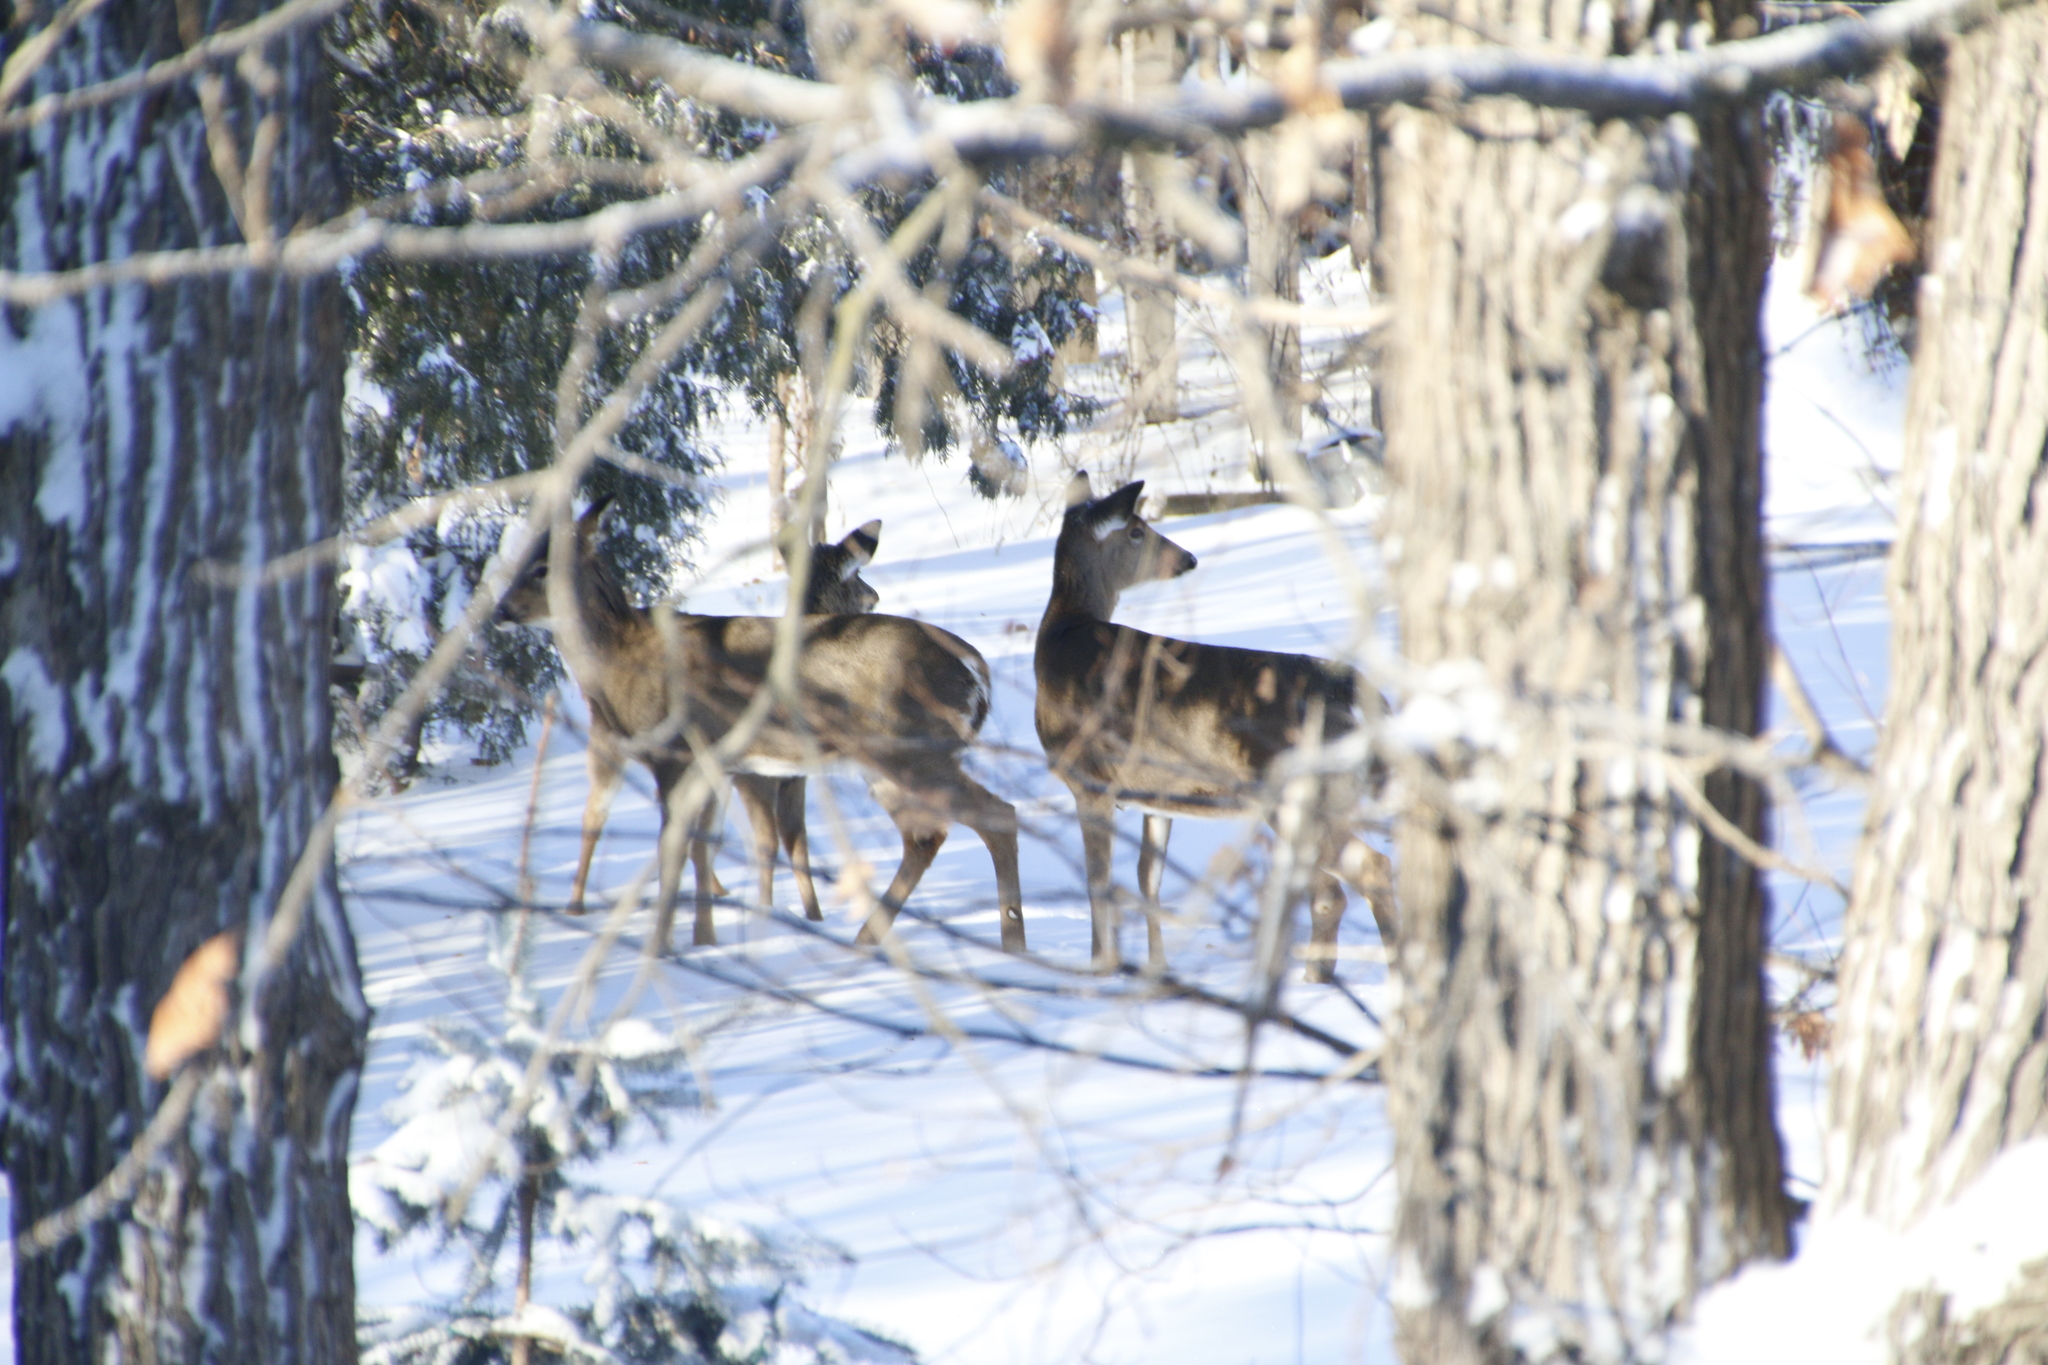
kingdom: Animalia
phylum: Chordata
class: Mammalia
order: Artiodactyla
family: Cervidae
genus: Odocoileus
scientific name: Odocoileus virginianus
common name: White-tailed deer
